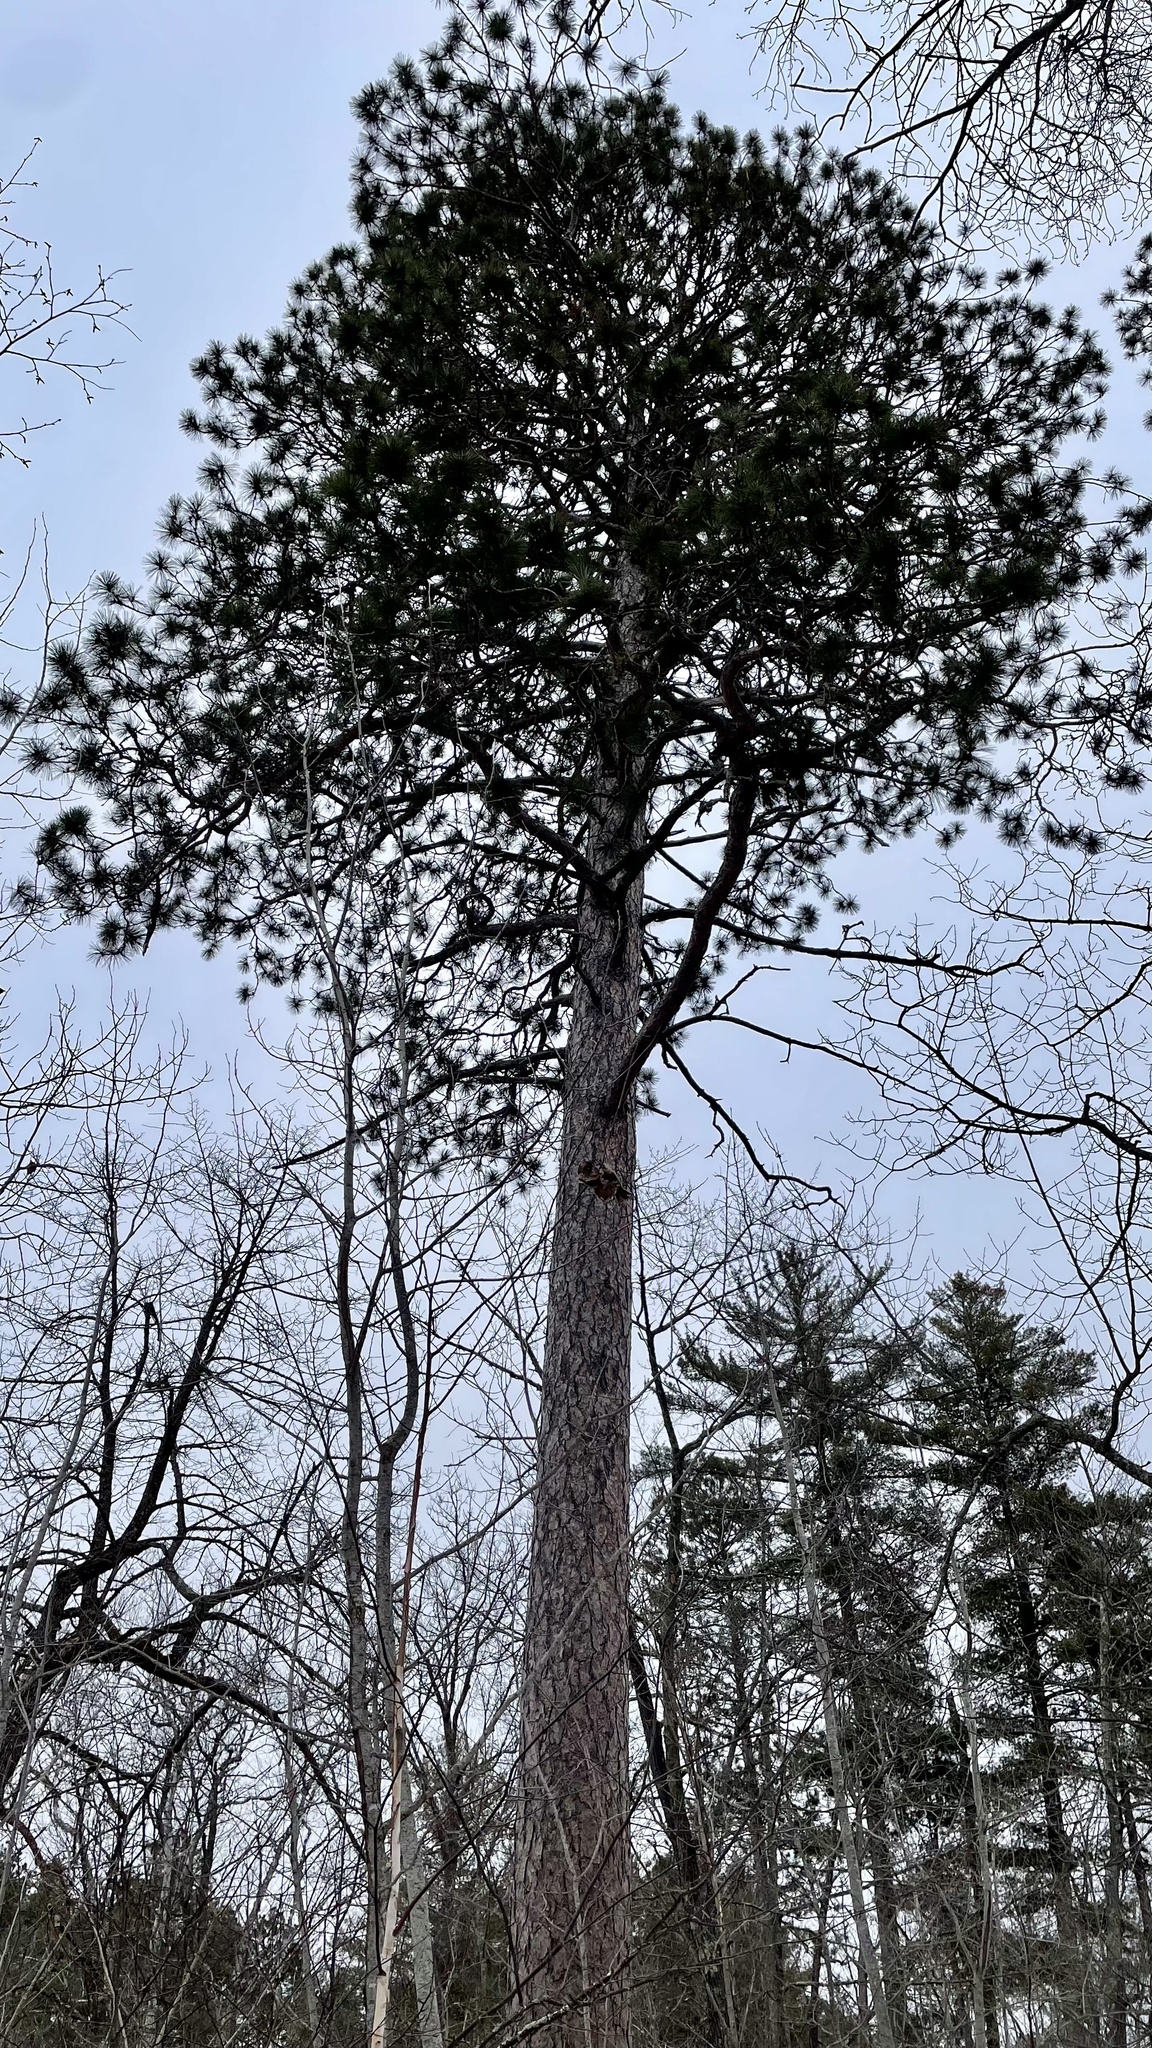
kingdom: Plantae
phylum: Tracheophyta
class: Pinopsida
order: Pinales
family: Pinaceae
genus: Pinus
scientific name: Pinus resinosa
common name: Norway pine
